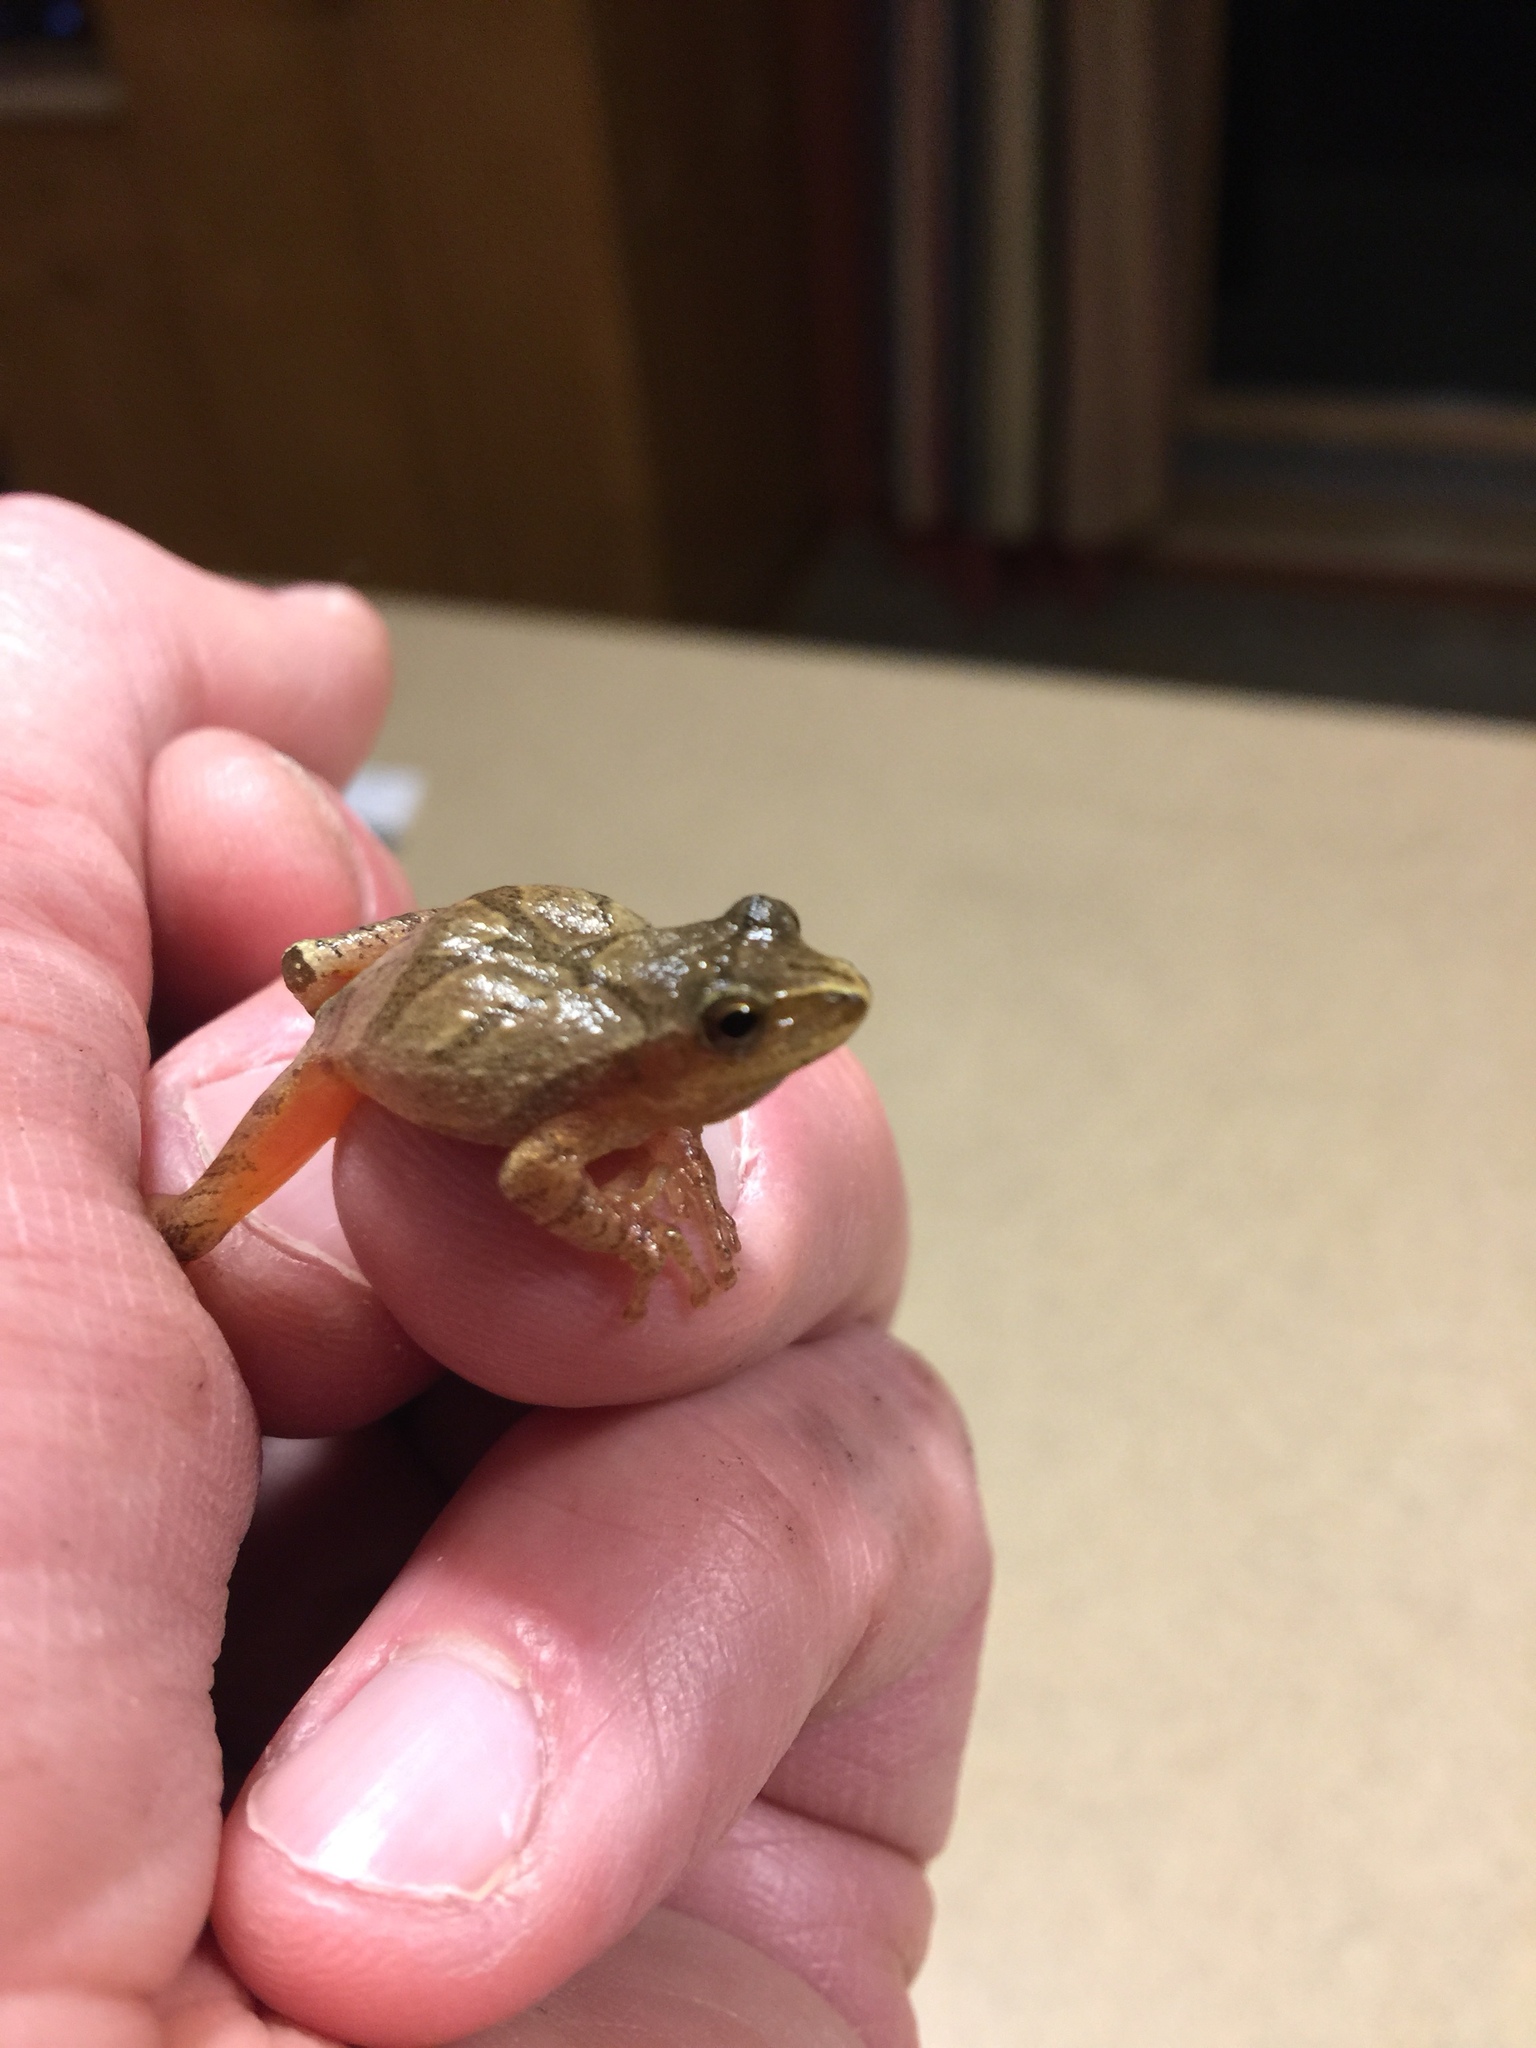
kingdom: Animalia
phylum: Chordata
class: Amphibia
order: Anura
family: Hylidae
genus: Pseudacris
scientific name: Pseudacris crucifer
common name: Spring peeper
